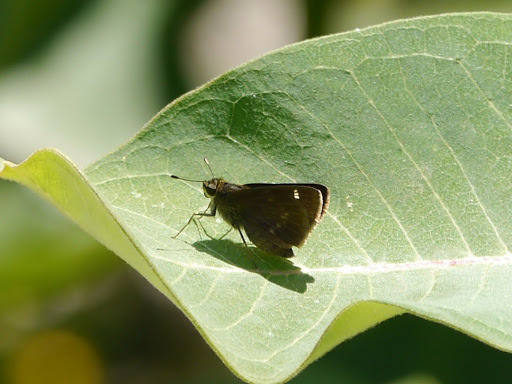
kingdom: Animalia
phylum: Arthropoda
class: Insecta
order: Lepidoptera
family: Hesperiidae
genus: Vernia
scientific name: Vernia verna
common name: Little glassywing
